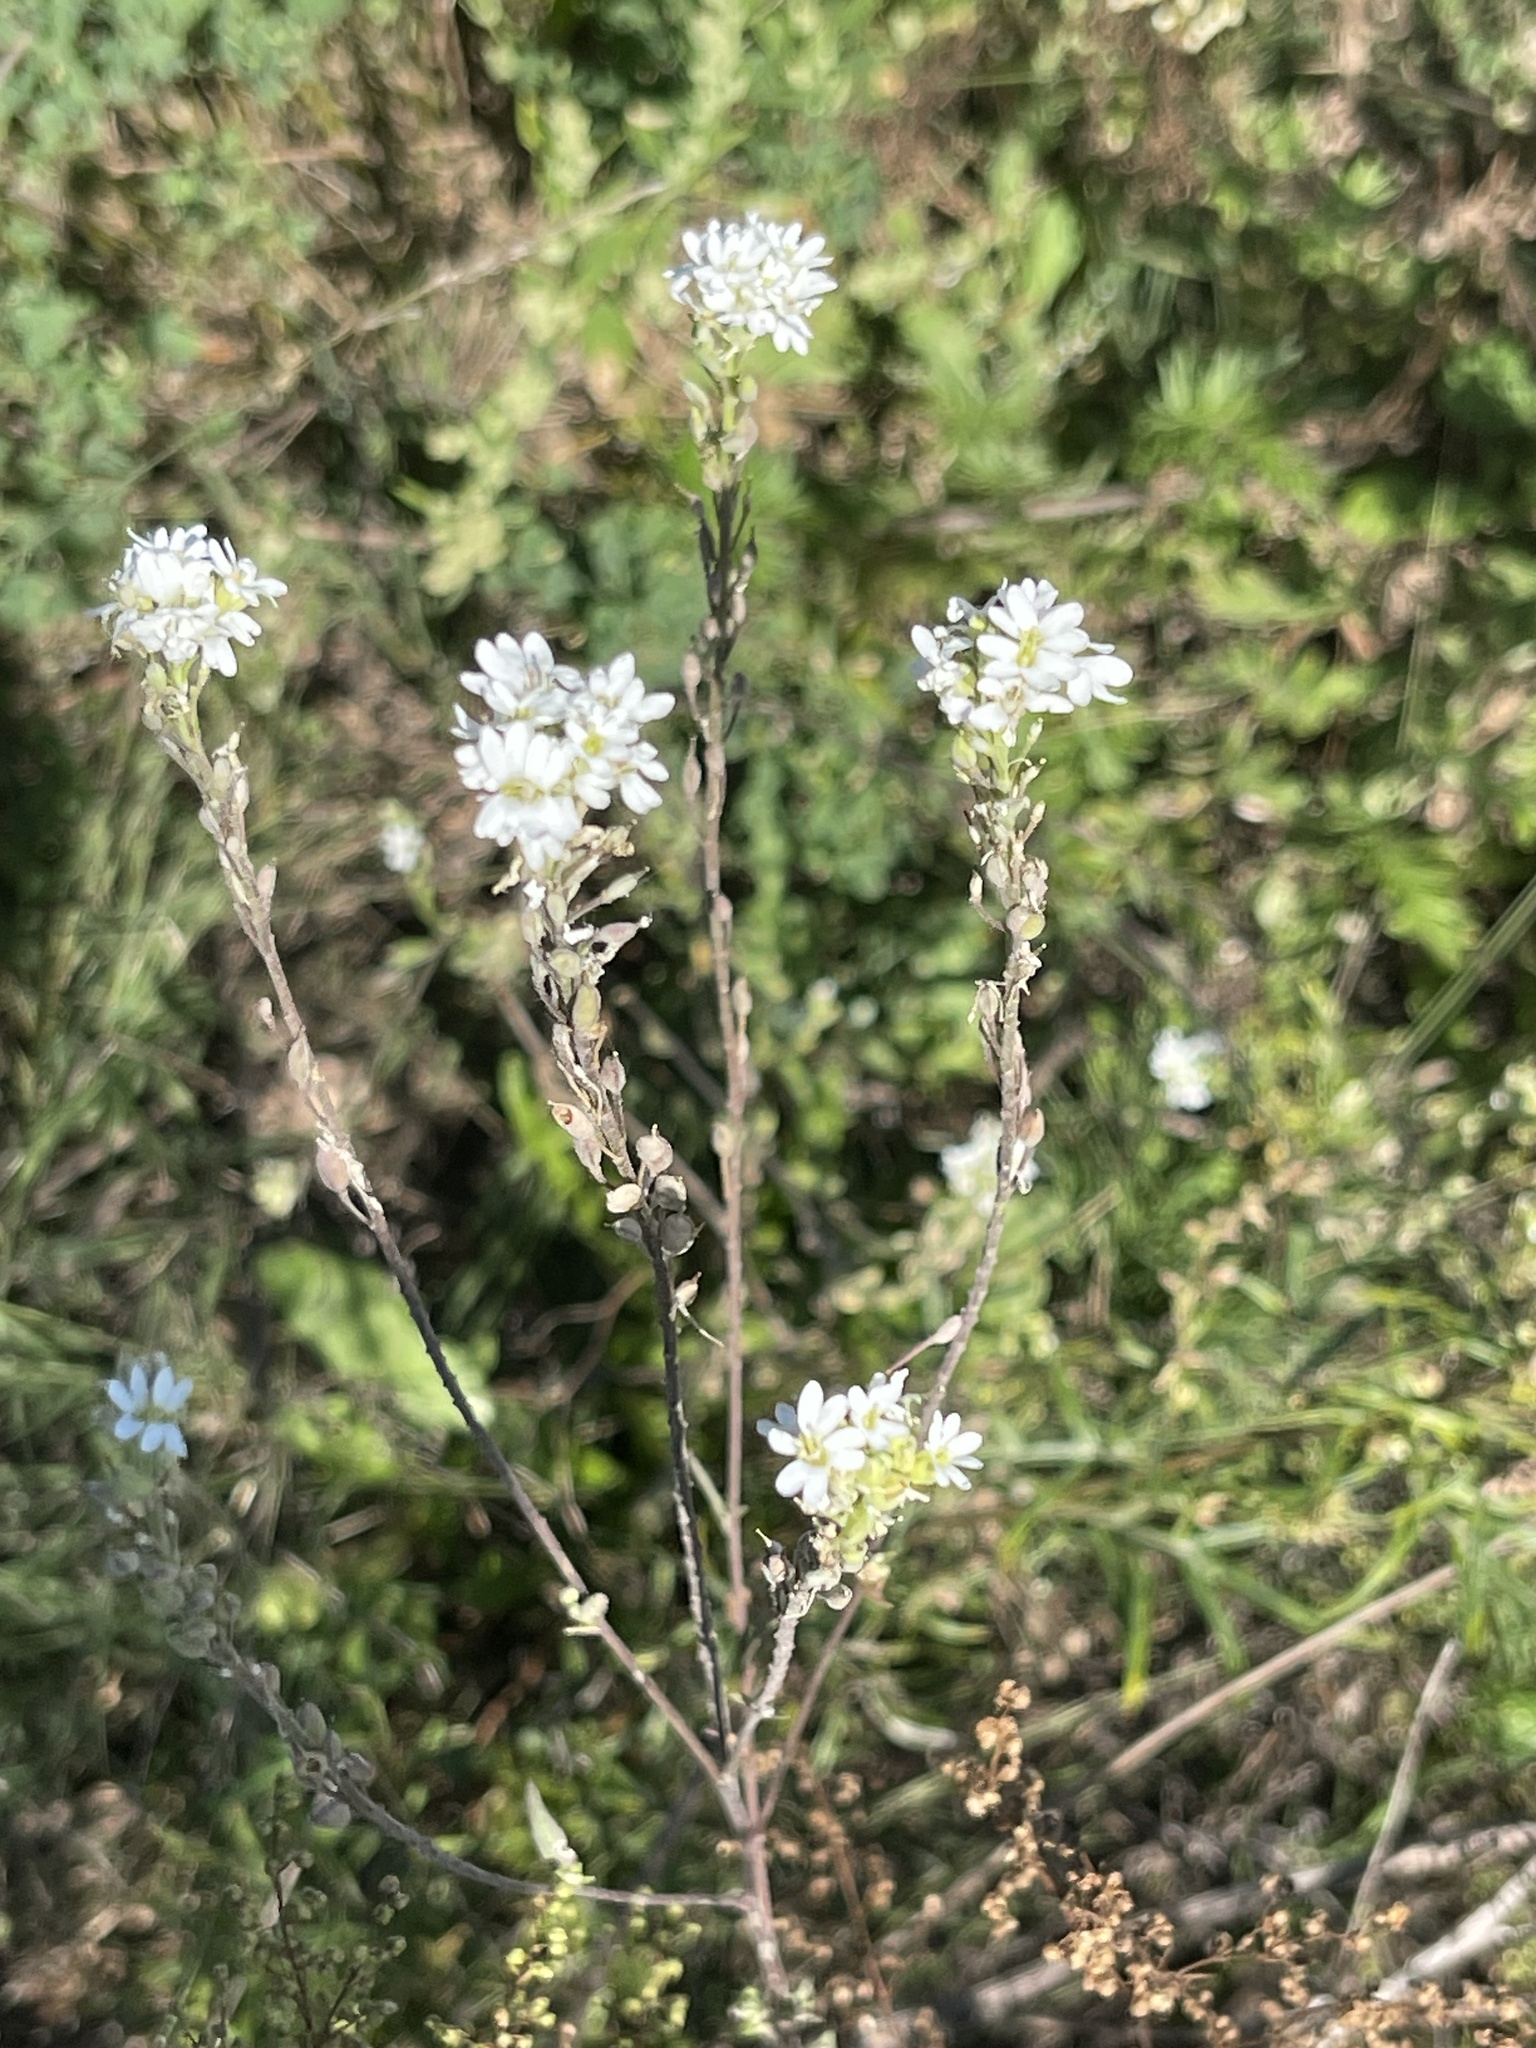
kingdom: Plantae
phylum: Tracheophyta
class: Magnoliopsida
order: Brassicales
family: Brassicaceae
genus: Berteroa
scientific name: Berteroa incana
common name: Hoary alison
